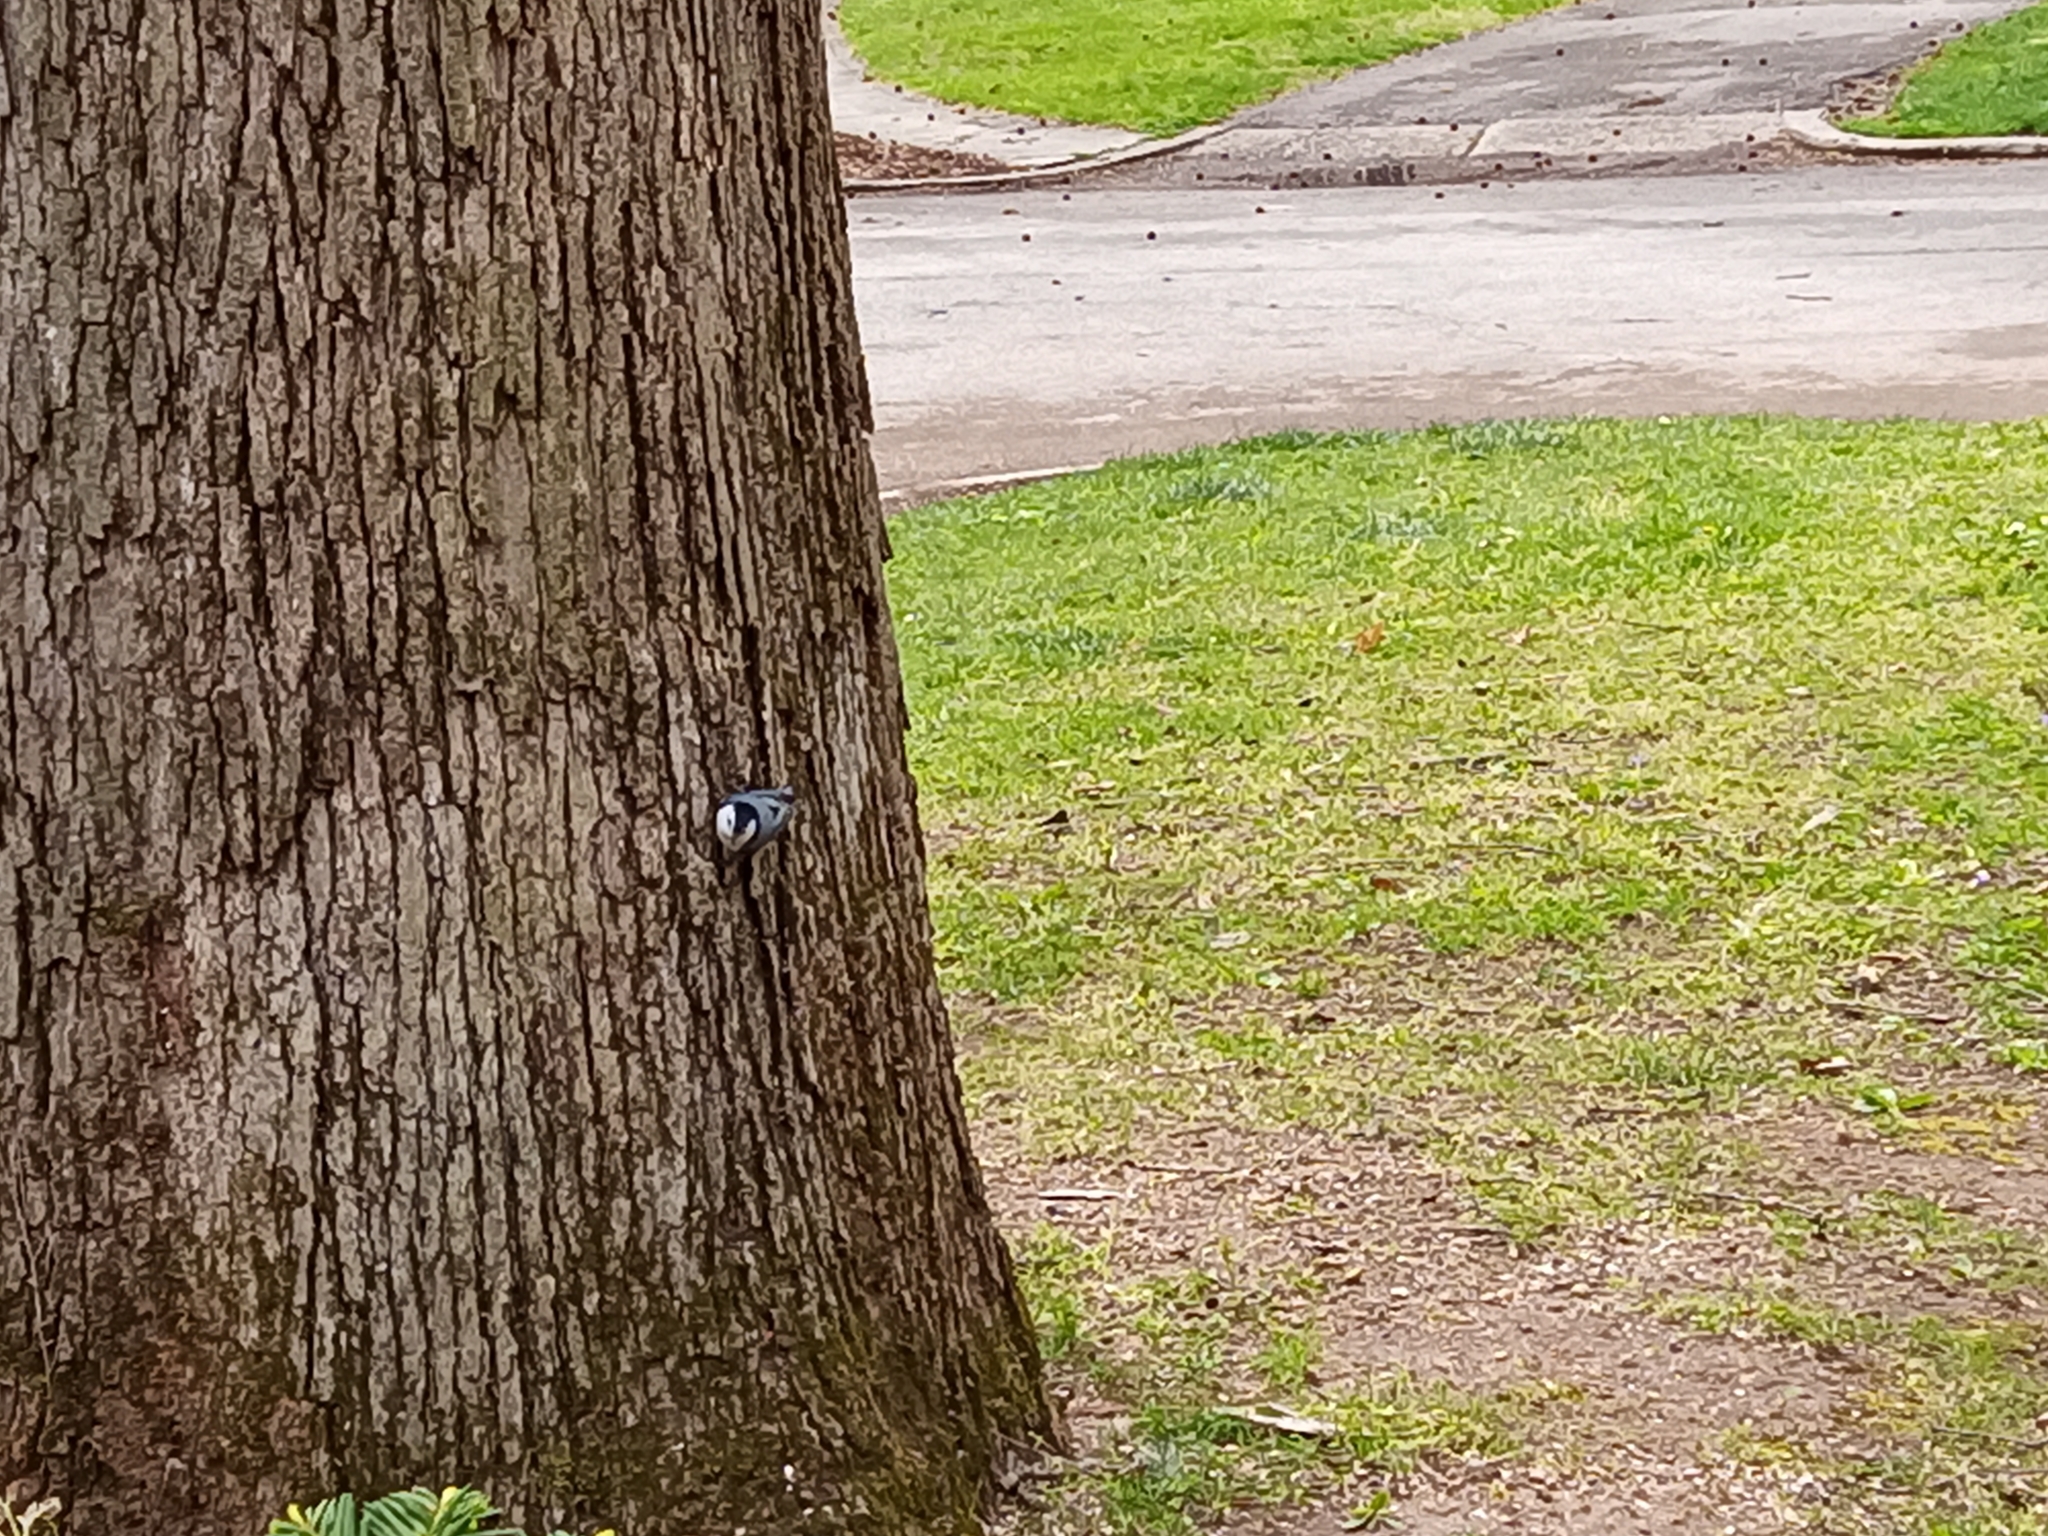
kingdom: Animalia
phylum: Chordata
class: Aves
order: Passeriformes
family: Sittidae
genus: Sitta
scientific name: Sitta carolinensis
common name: White-breasted nuthatch
